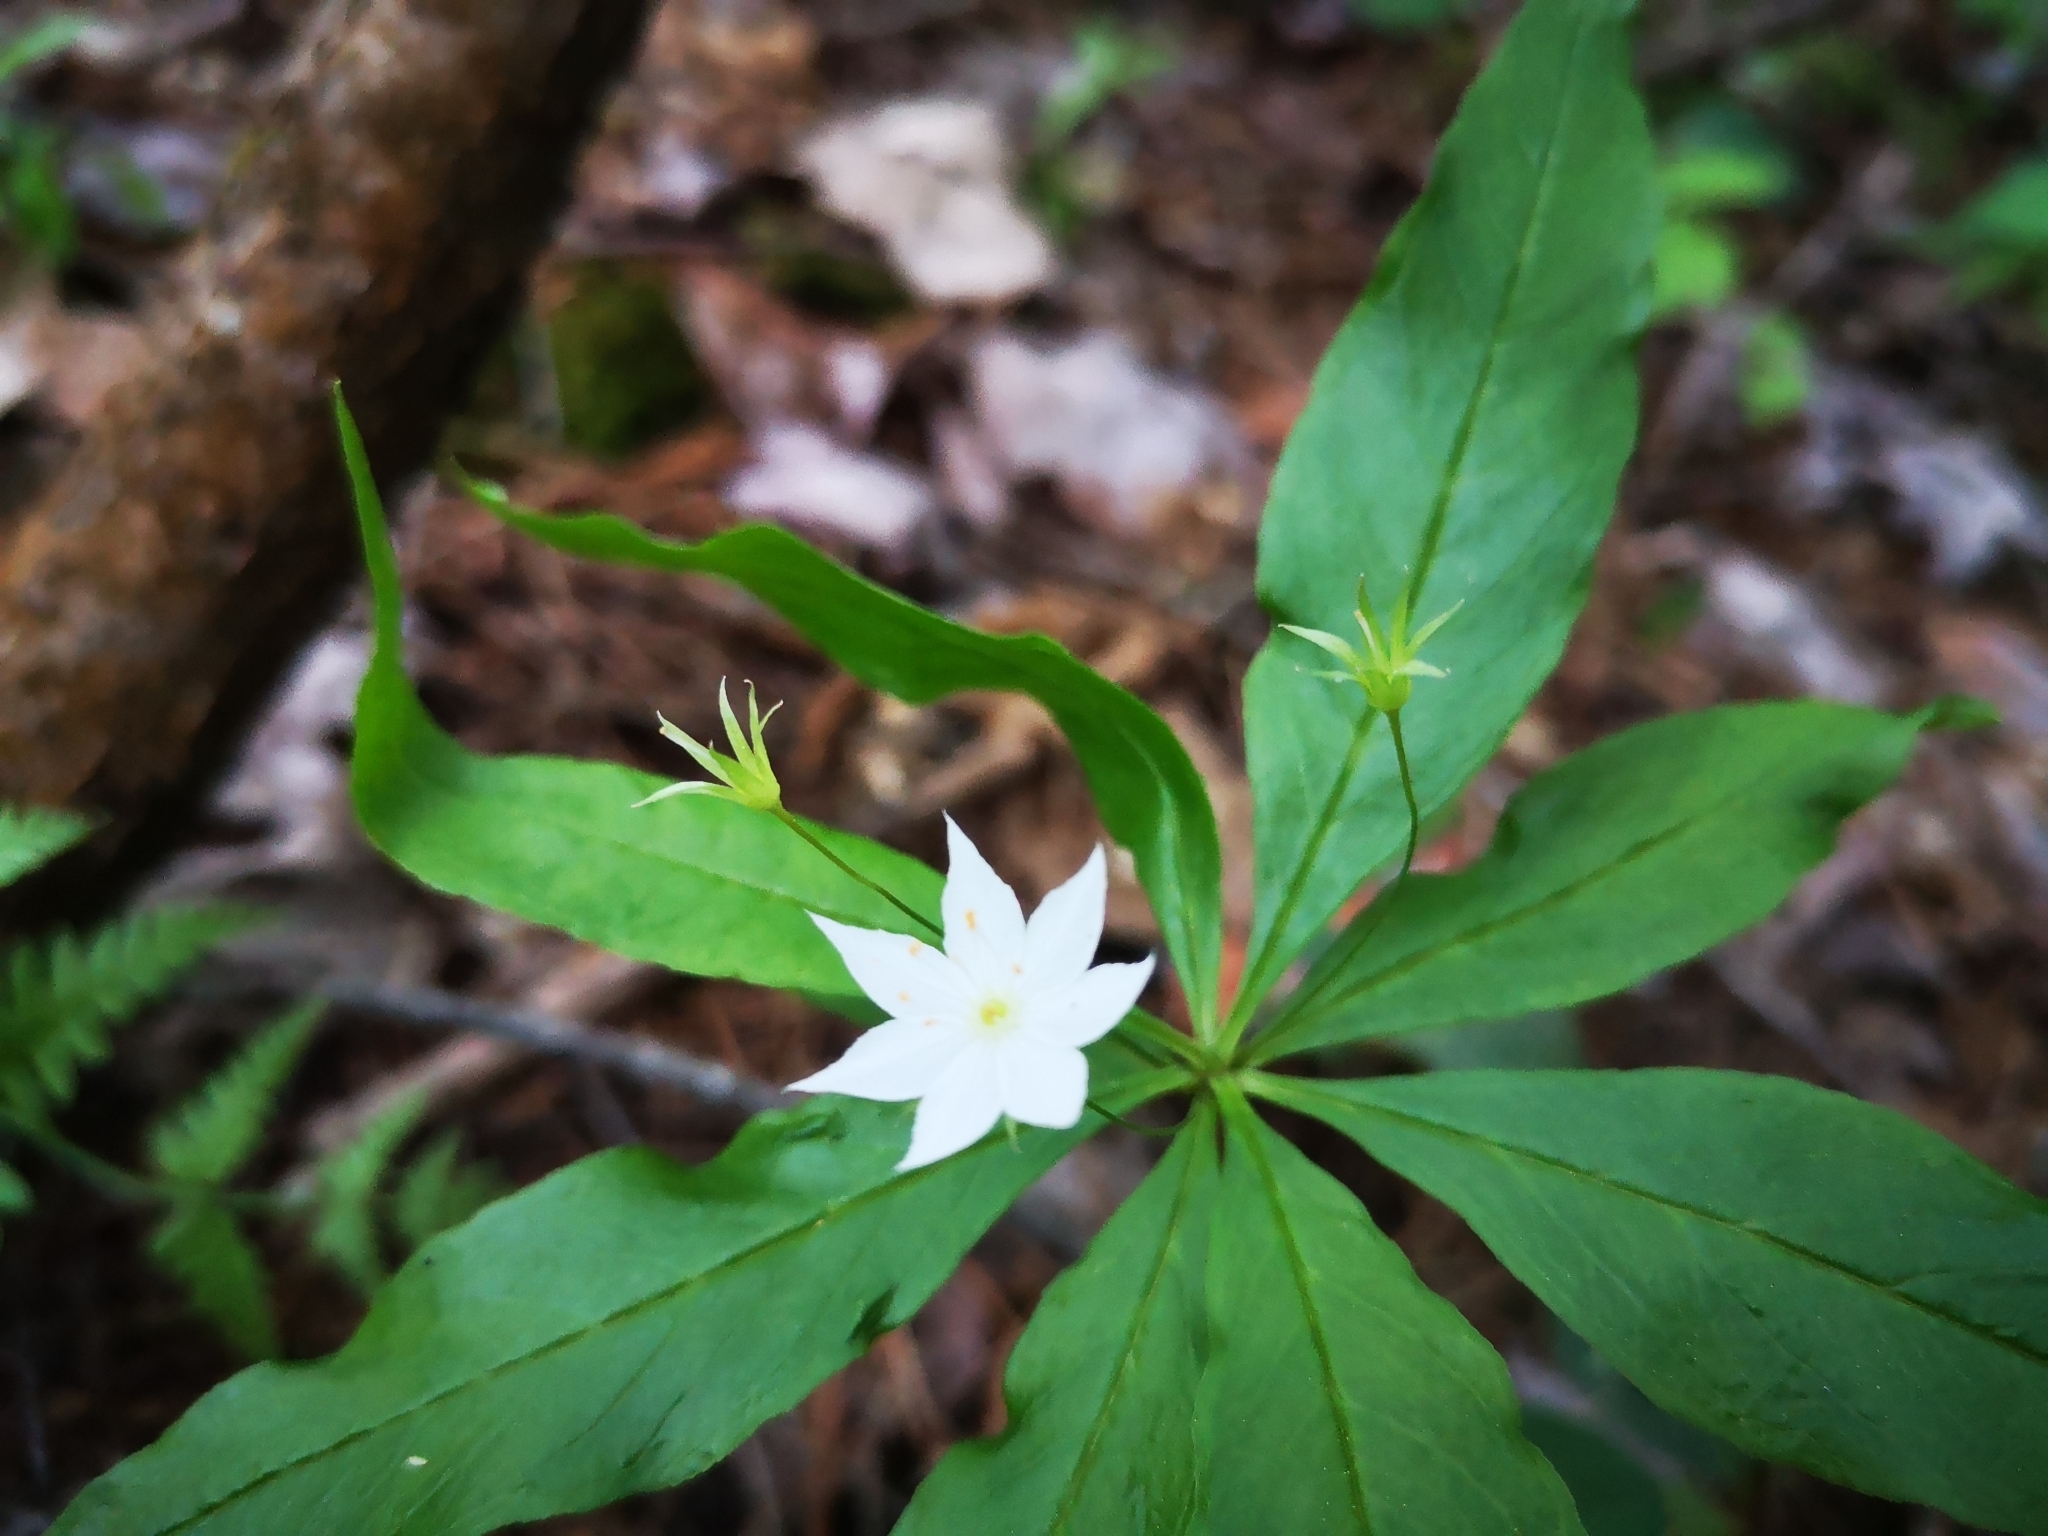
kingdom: Plantae
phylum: Tracheophyta
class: Magnoliopsida
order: Ericales
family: Primulaceae
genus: Lysimachia
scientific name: Lysimachia borealis
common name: American starflower
